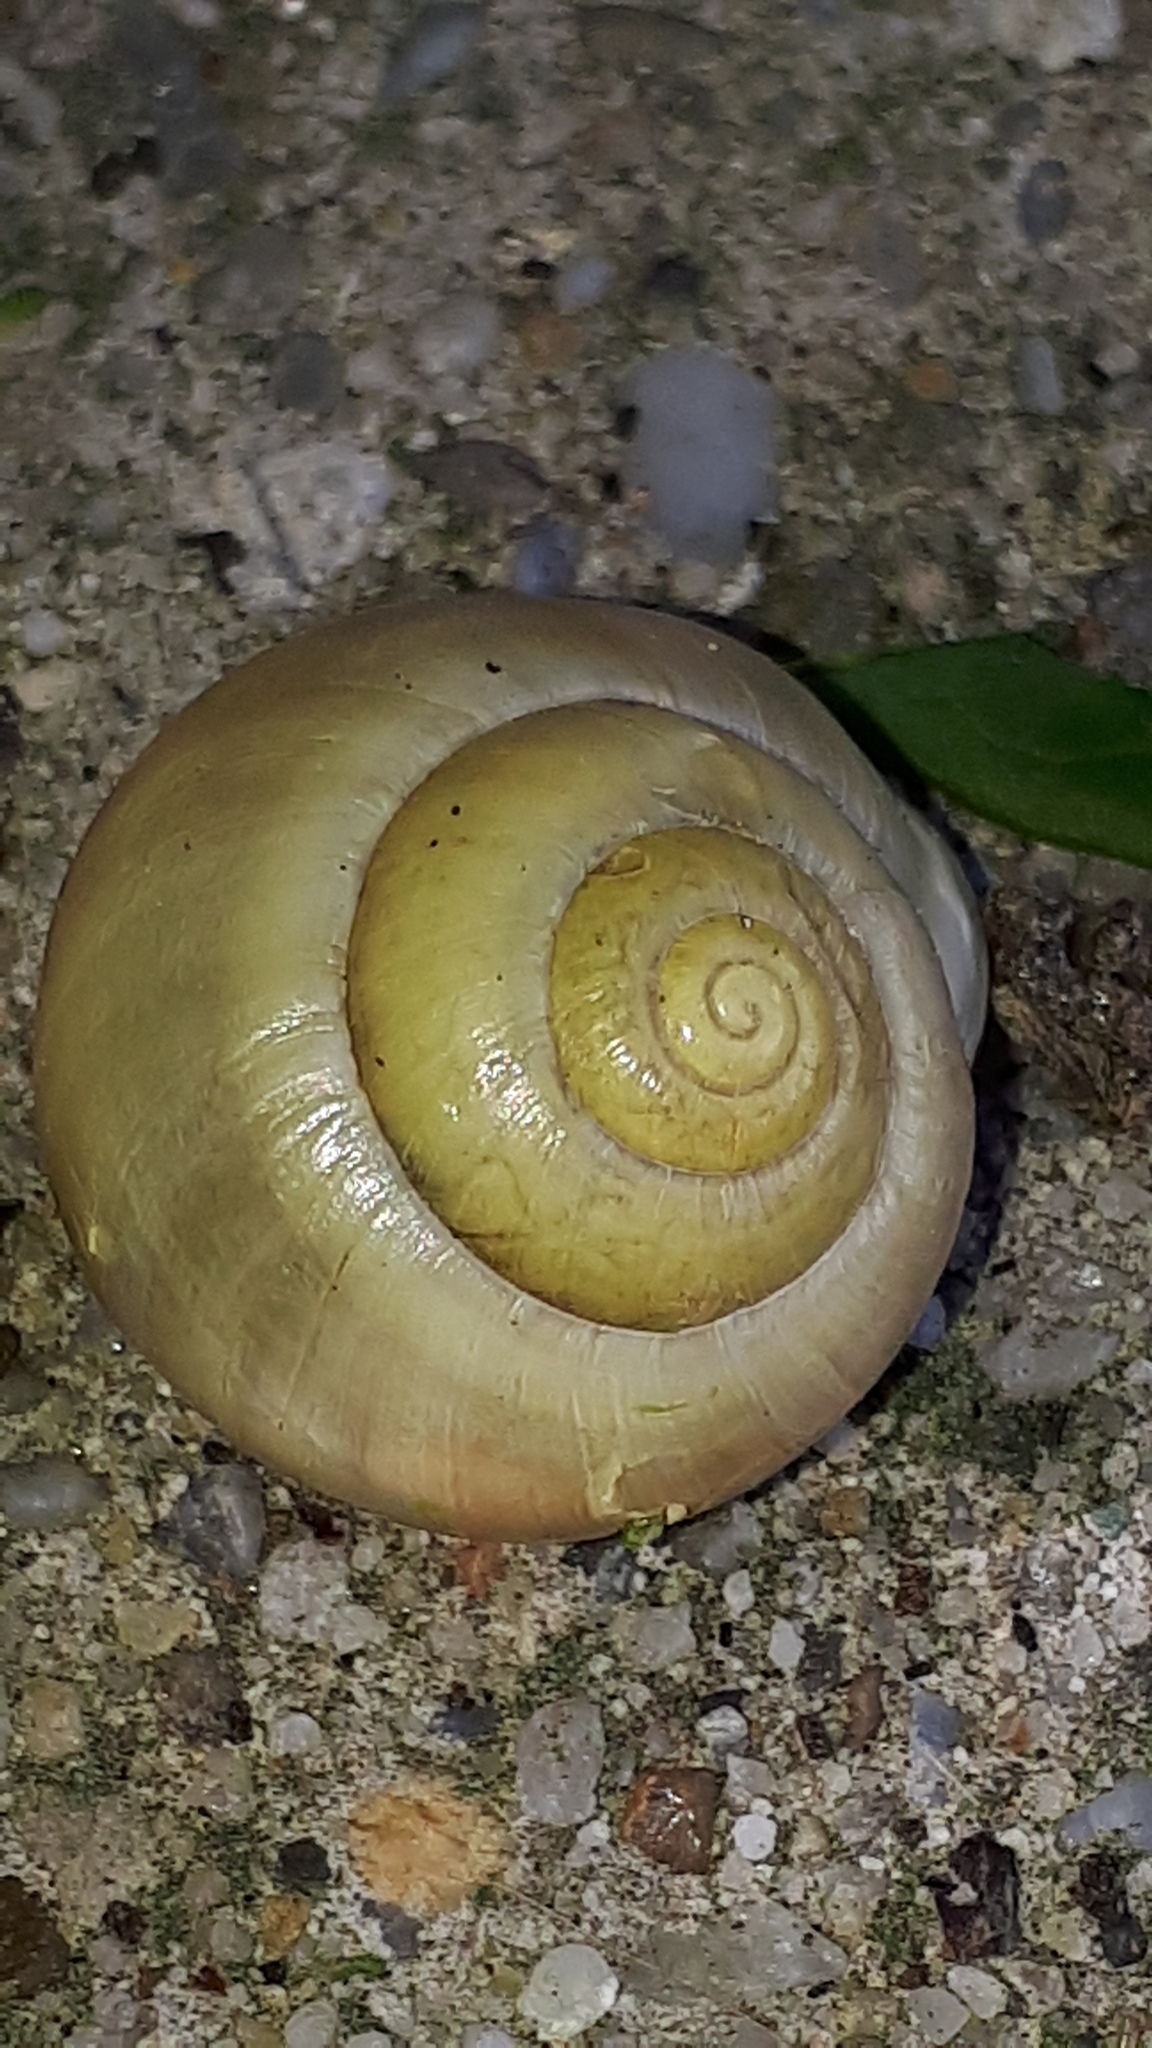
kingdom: Animalia
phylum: Mollusca
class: Gastropoda
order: Stylommatophora
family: Helicidae
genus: Cepaea
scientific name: Cepaea hortensis
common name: White-lip gardensnail
